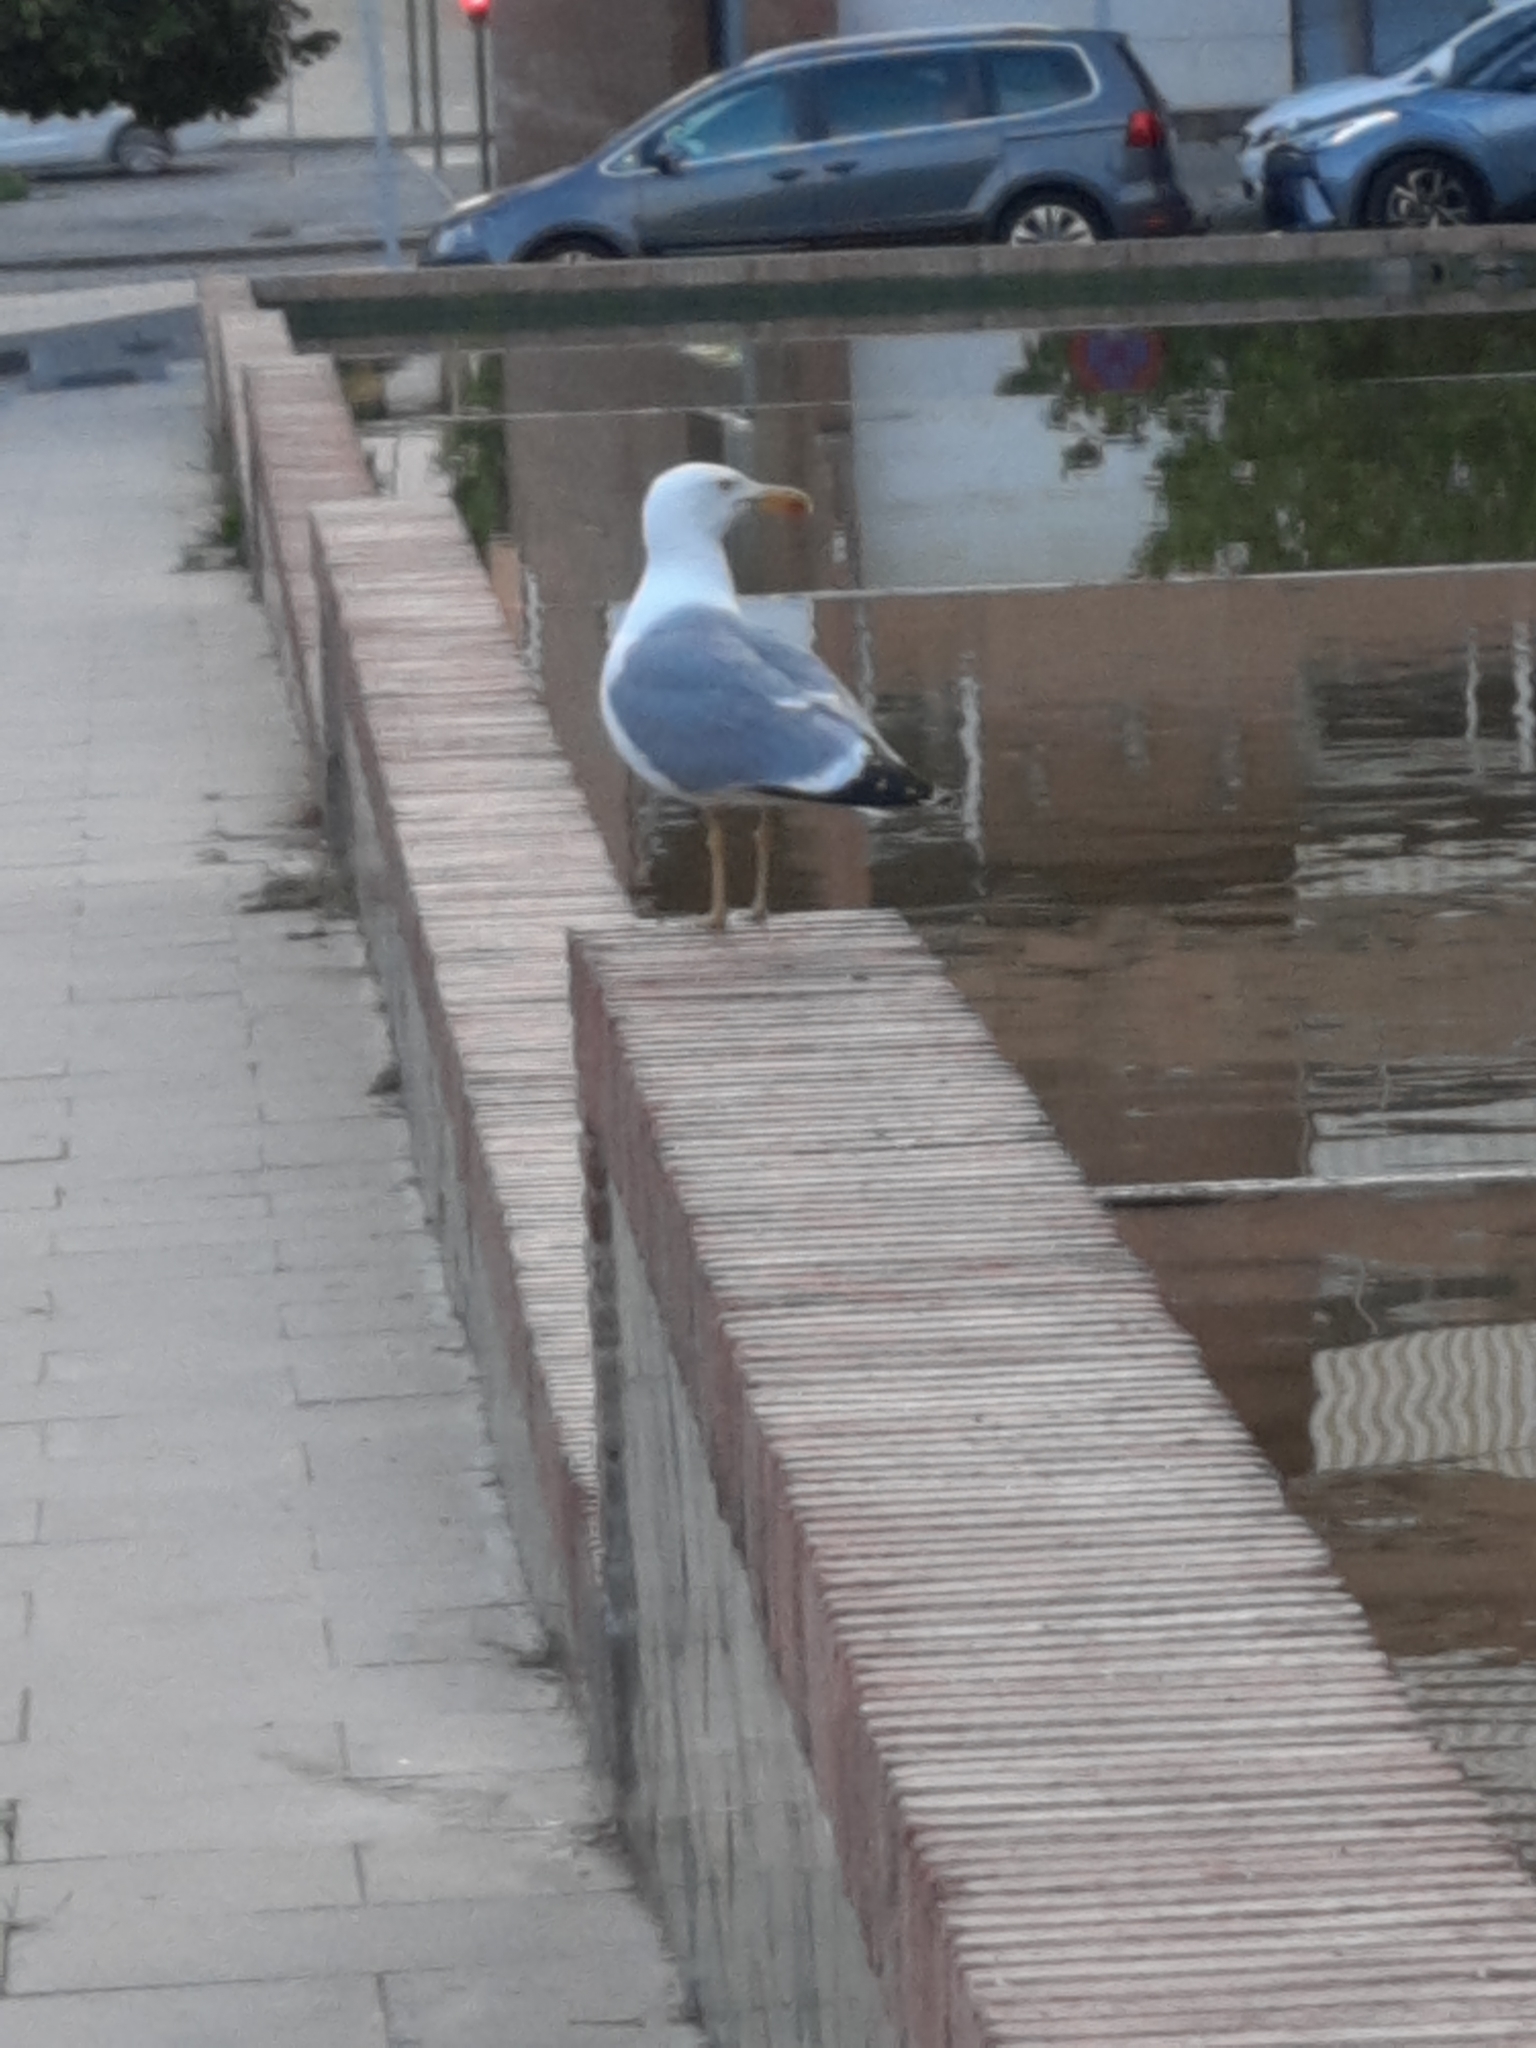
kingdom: Animalia
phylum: Chordata
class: Aves
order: Charadriiformes
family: Laridae
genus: Larus
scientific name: Larus michahellis
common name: Yellow-legged gull
